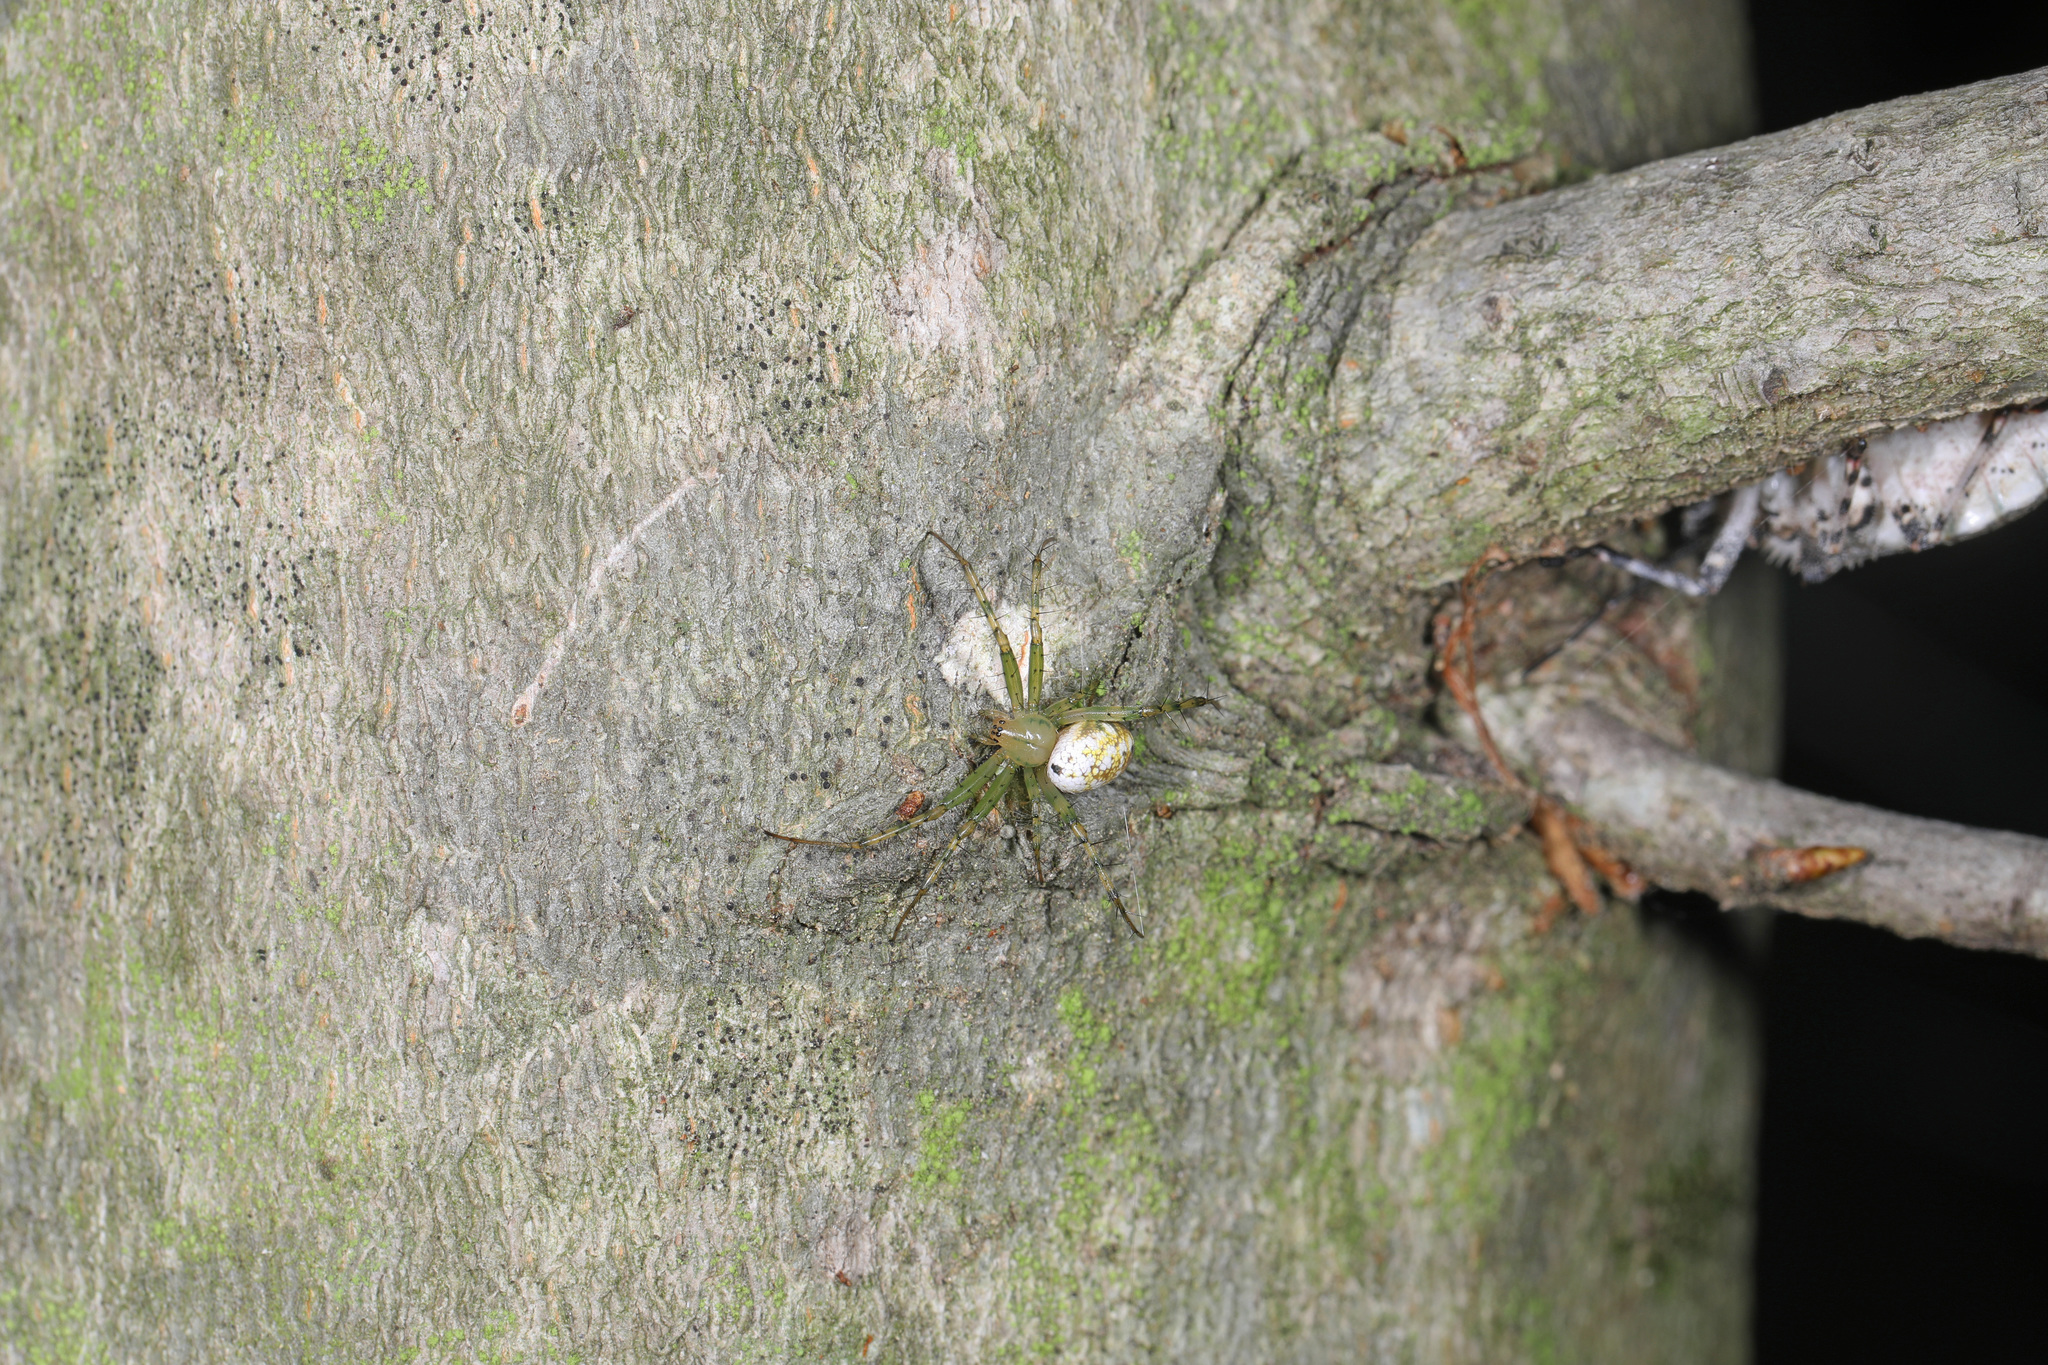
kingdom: Animalia
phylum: Arthropoda
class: Arachnida
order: Araneae
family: Araneidae
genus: Mangora
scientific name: Mangora maculata
